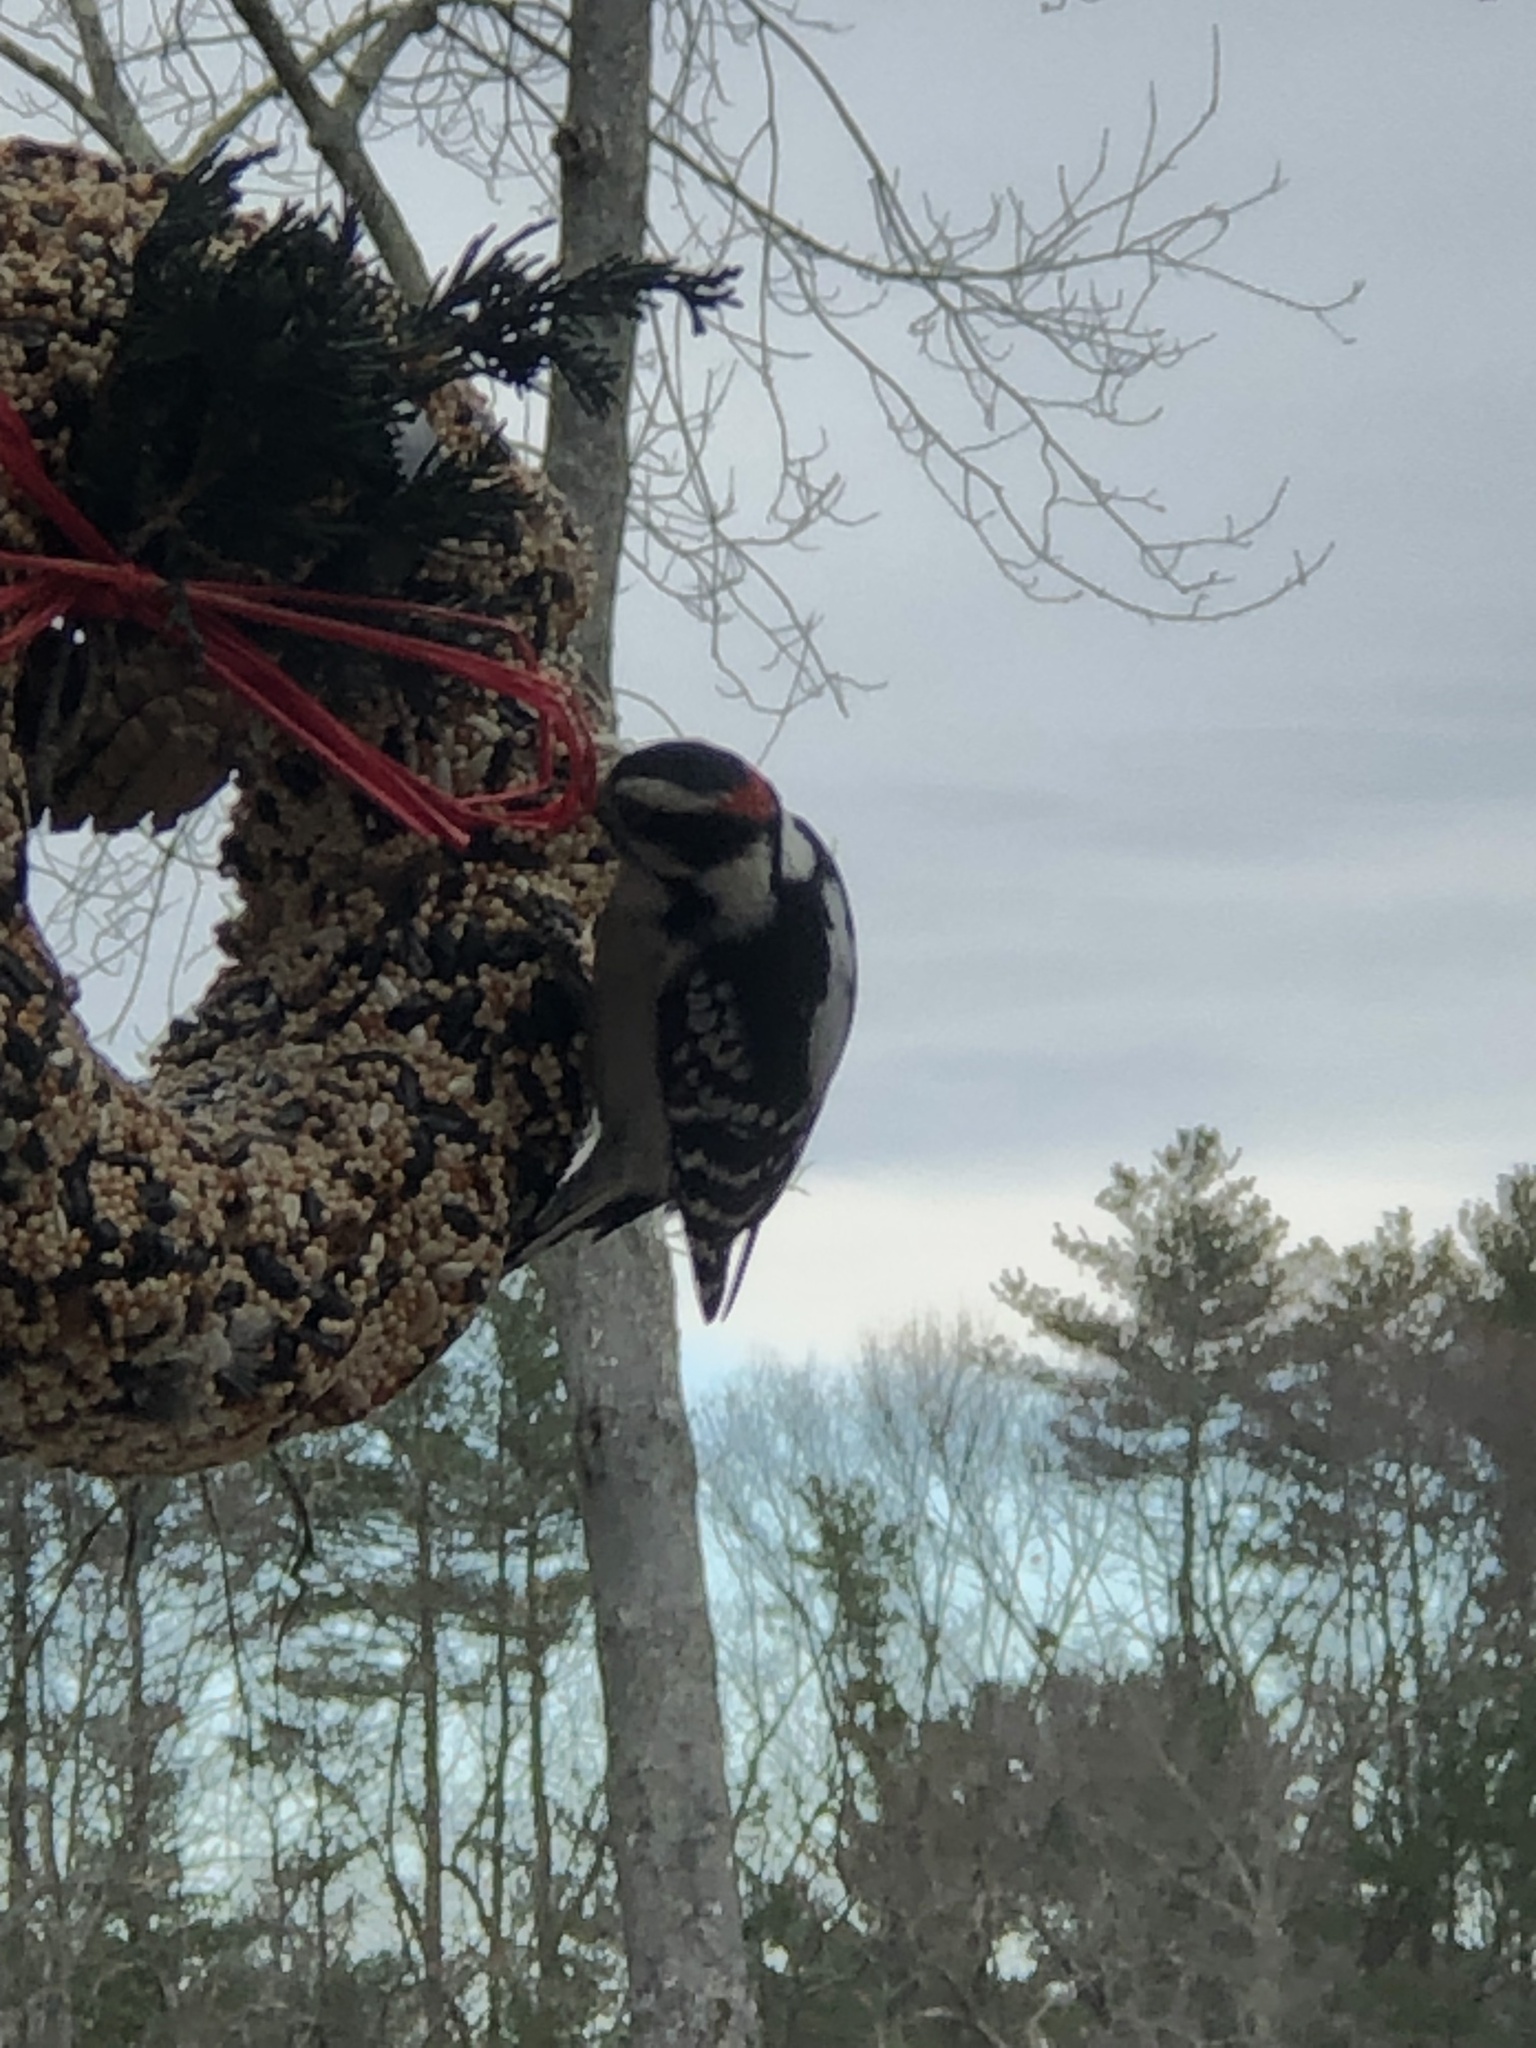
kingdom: Animalia
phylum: Chordata
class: Aves
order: Piciformes
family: Picidae
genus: Dryobates
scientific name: Dryobates pubescens
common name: Downy woodpecker
